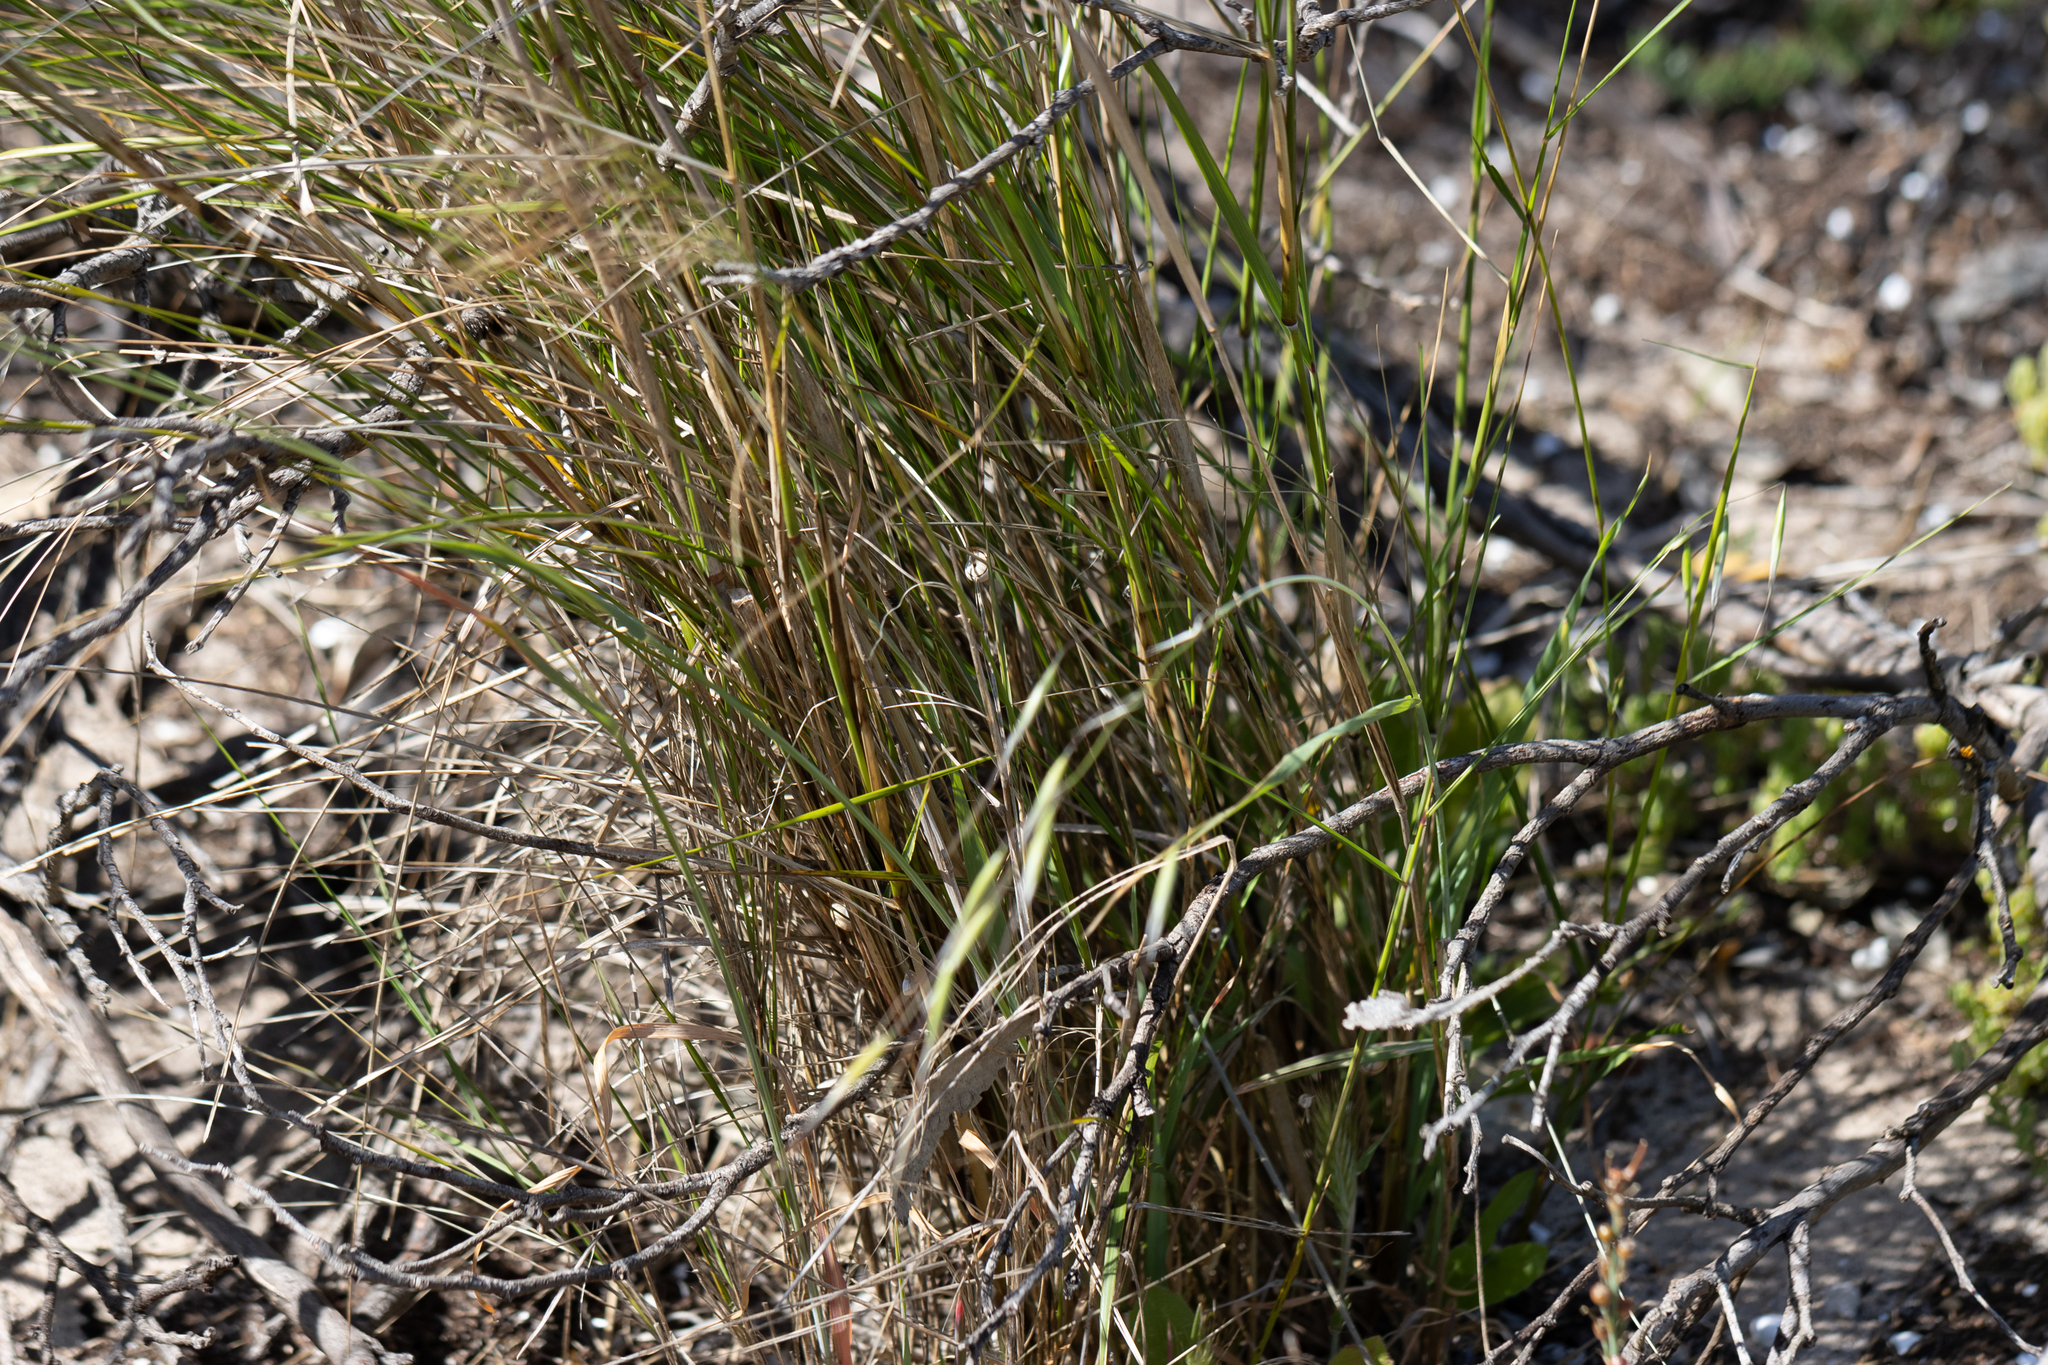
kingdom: Plantae
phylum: Tracheophyta
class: Liliopsida
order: Poales
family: Poaceae
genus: Austrostipa
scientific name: Austrostipa acrociliata
